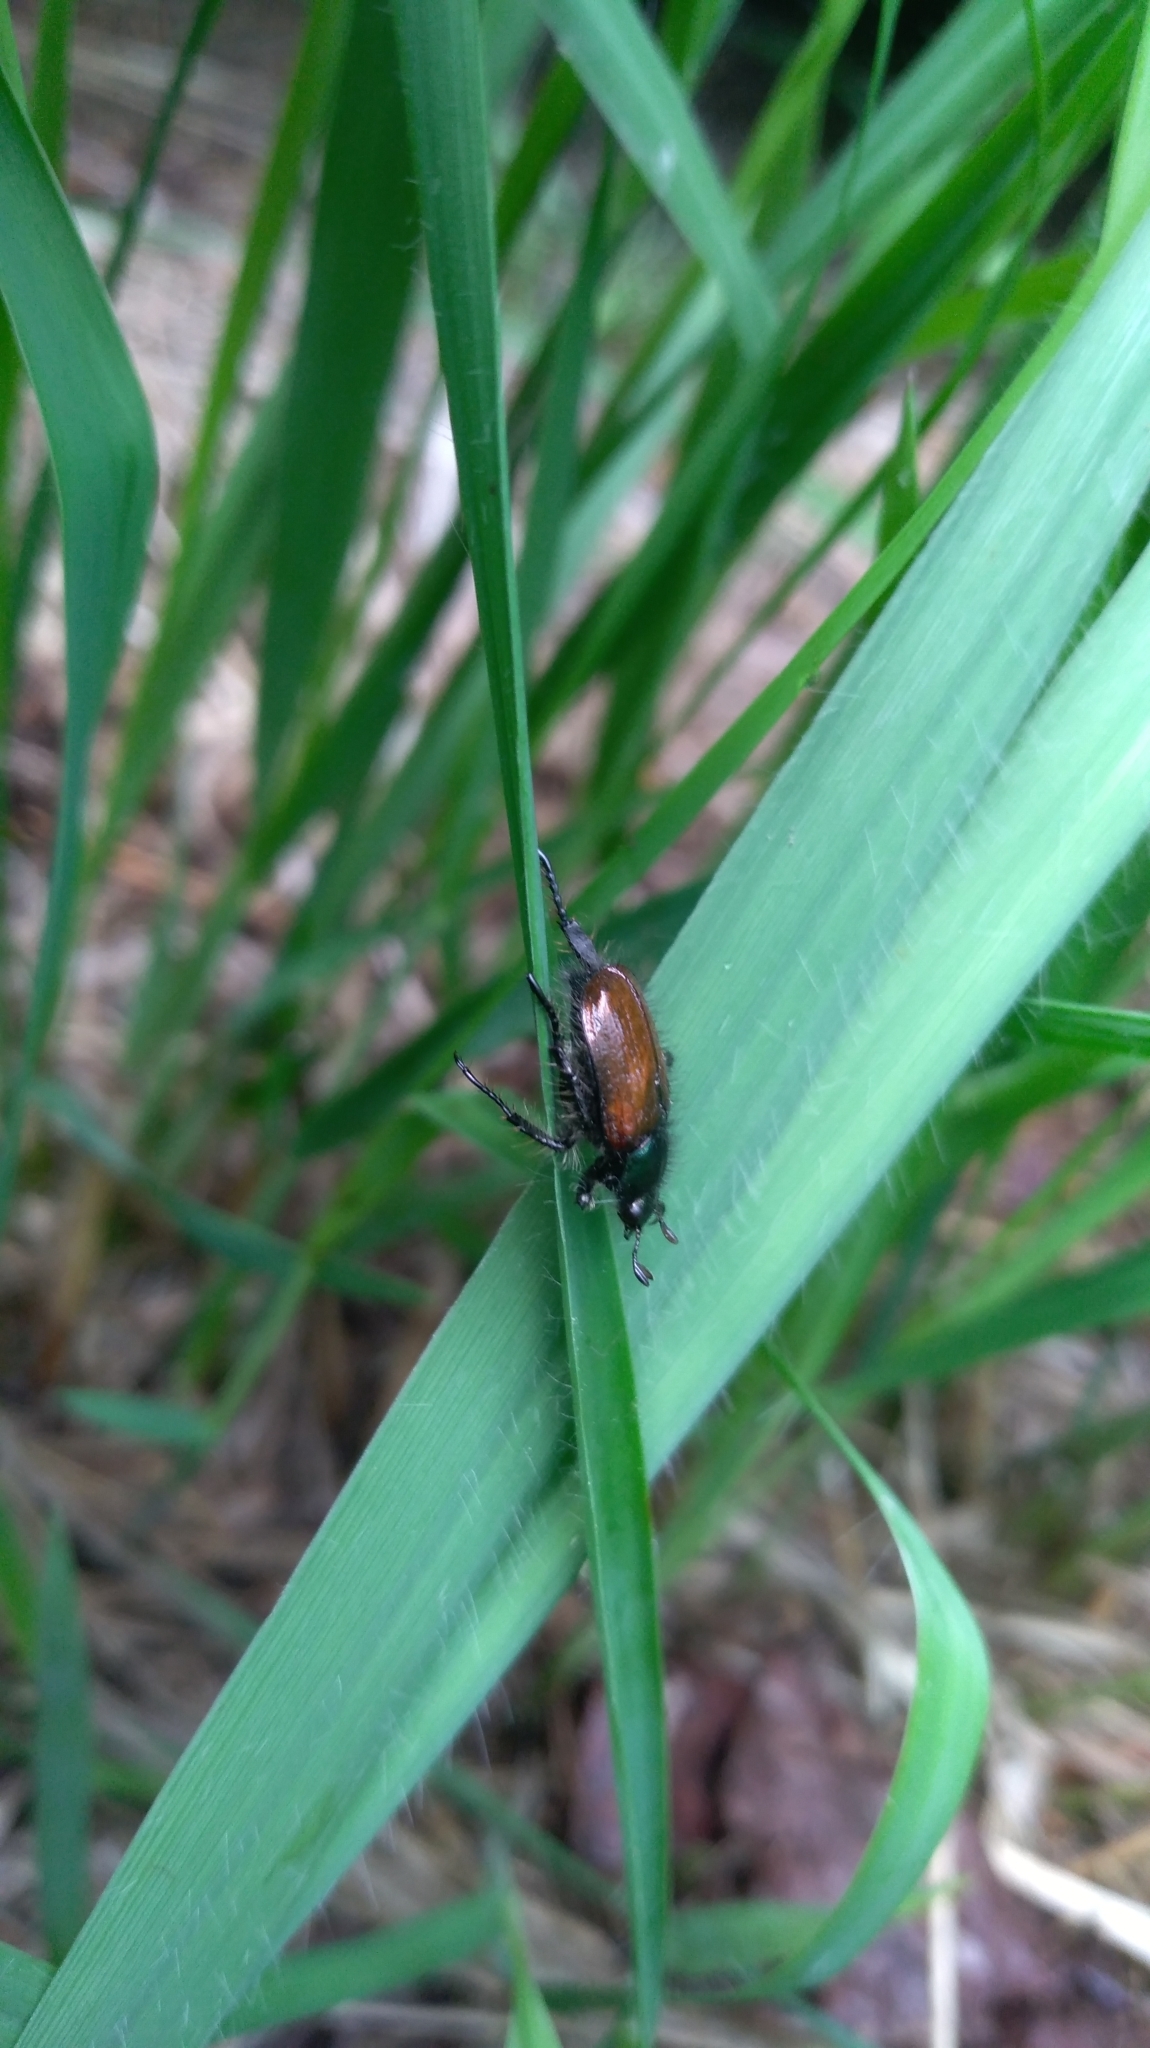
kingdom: Animalia
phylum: Arthropoda
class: Insecta
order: Coleoptera
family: Scarabaeidae
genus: Phyllopertha
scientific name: Phyllopertha horticola
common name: Garden chafer
